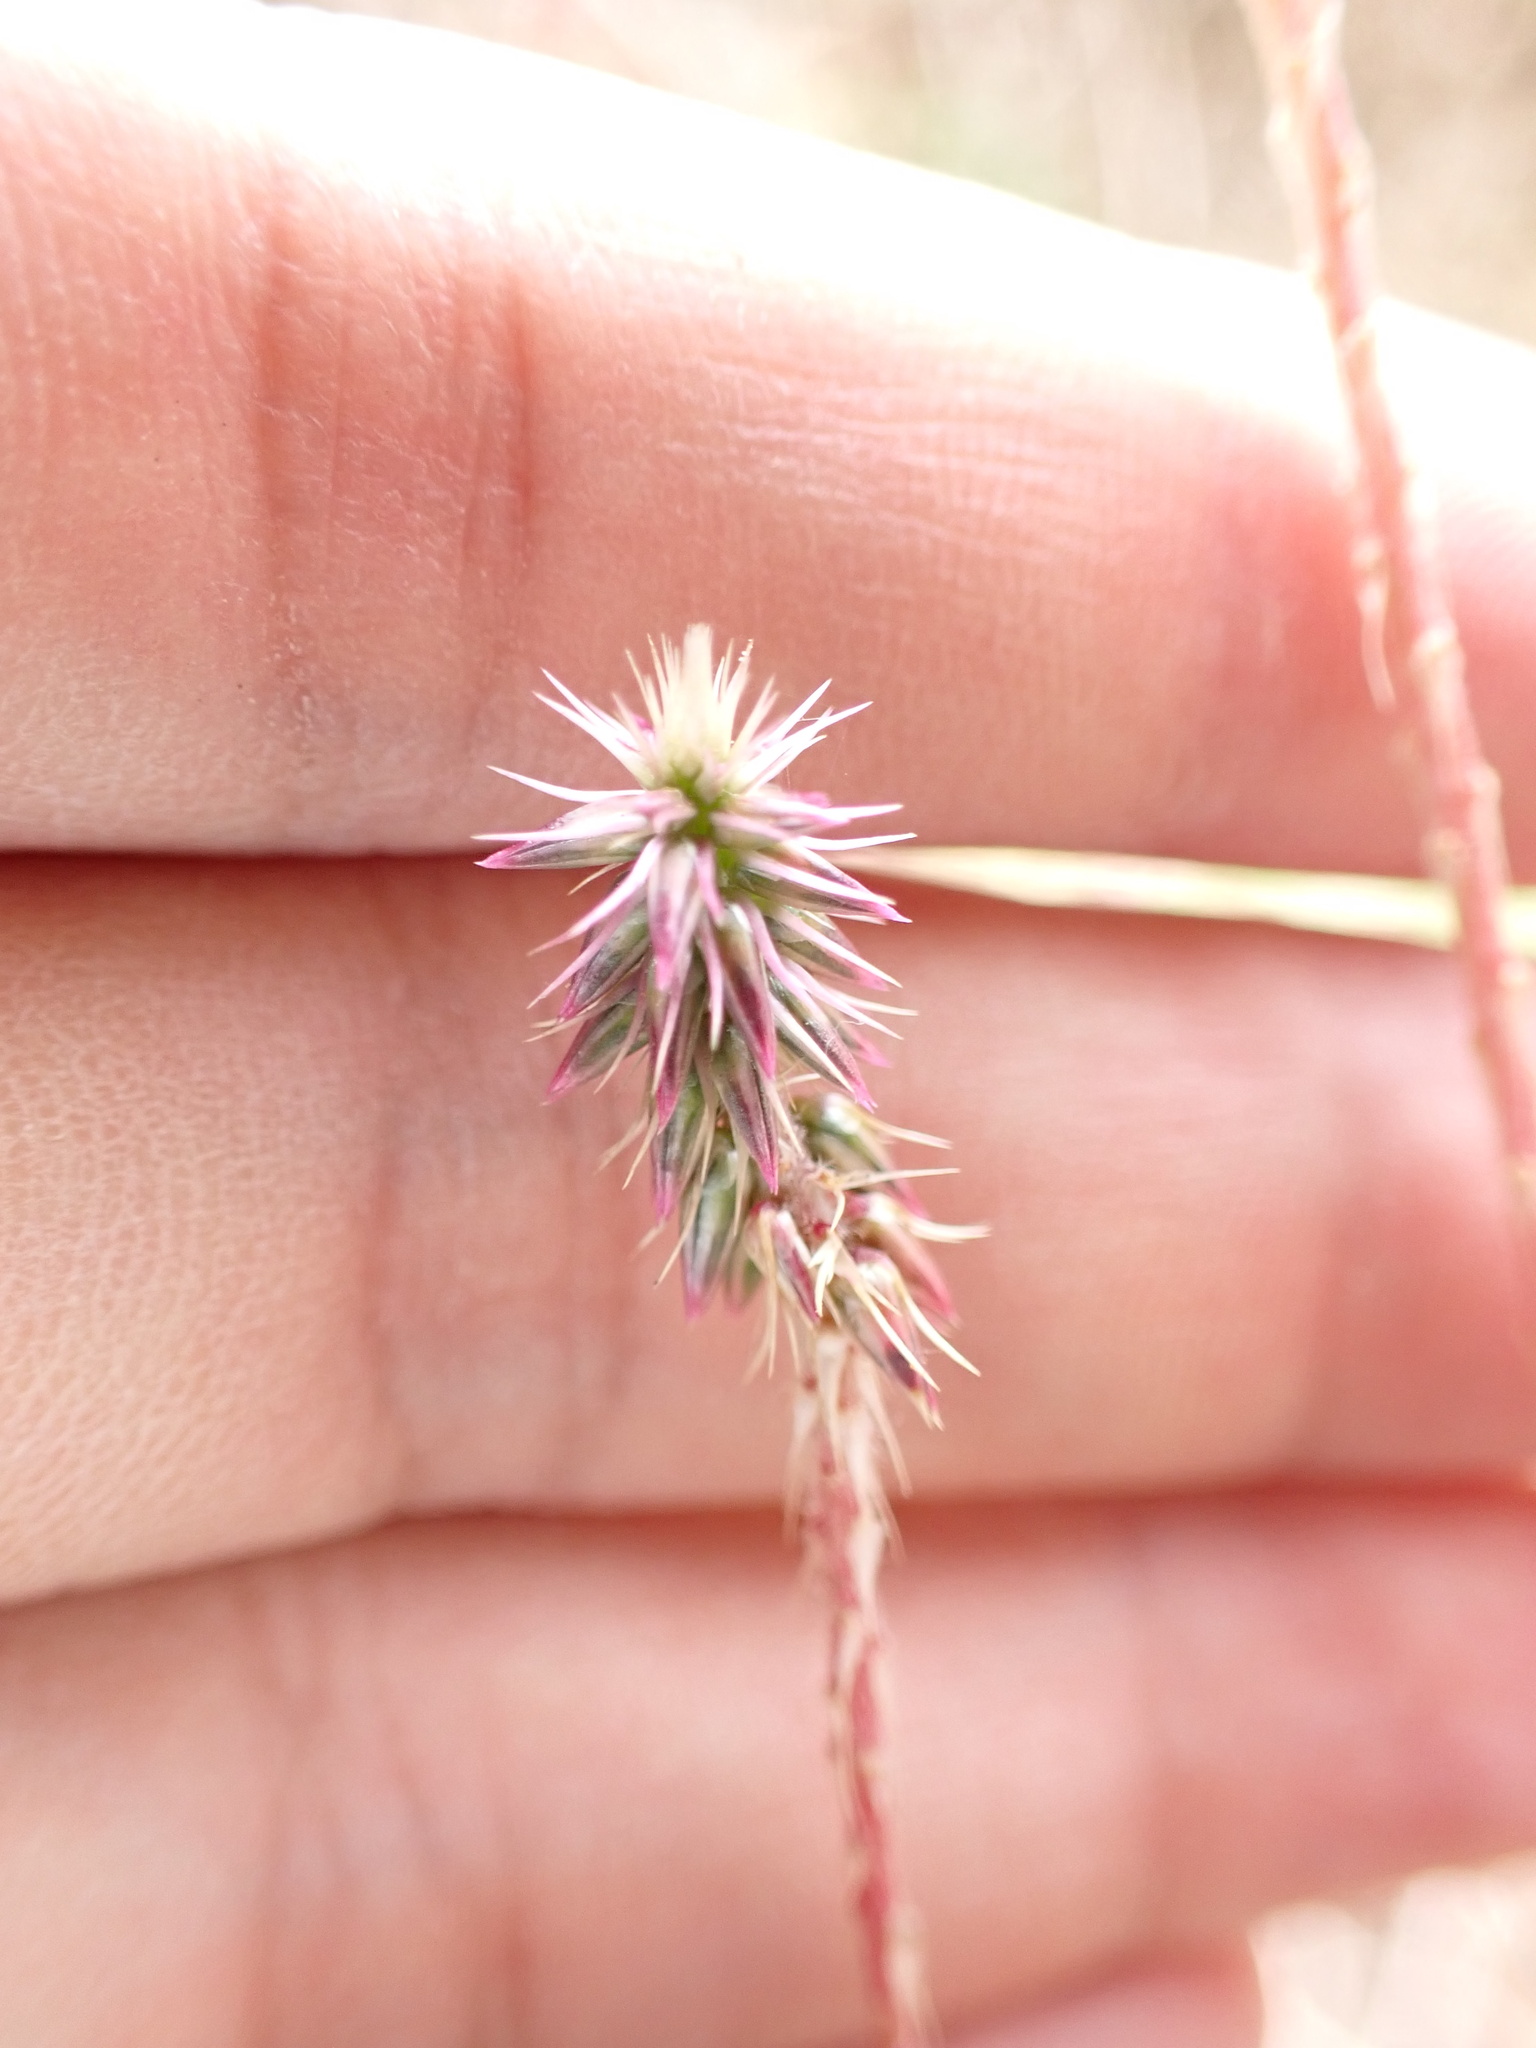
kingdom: Plantae
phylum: Tracheophyta
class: Magnoliopsida
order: Caryophyllales
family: Amaranthaceae
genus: Achyranthes
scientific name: Achyranthes aspera
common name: Devil's horsewhip
